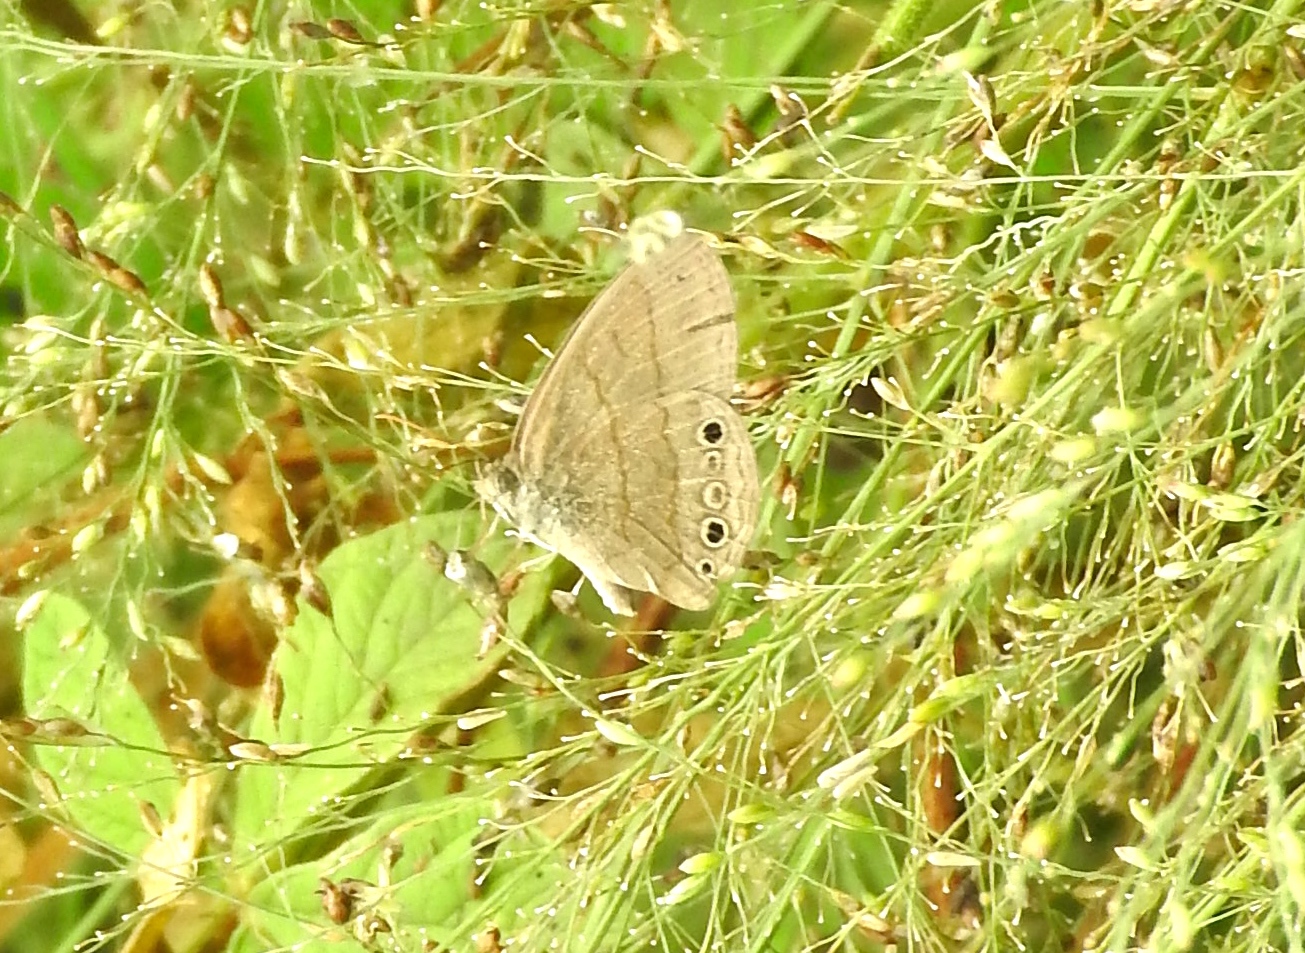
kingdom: Animalia
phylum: Arthropoda
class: Insecta
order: Lepidoptera
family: Nymphalidae
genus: Hermeuptychia
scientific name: Hermeuptychia
